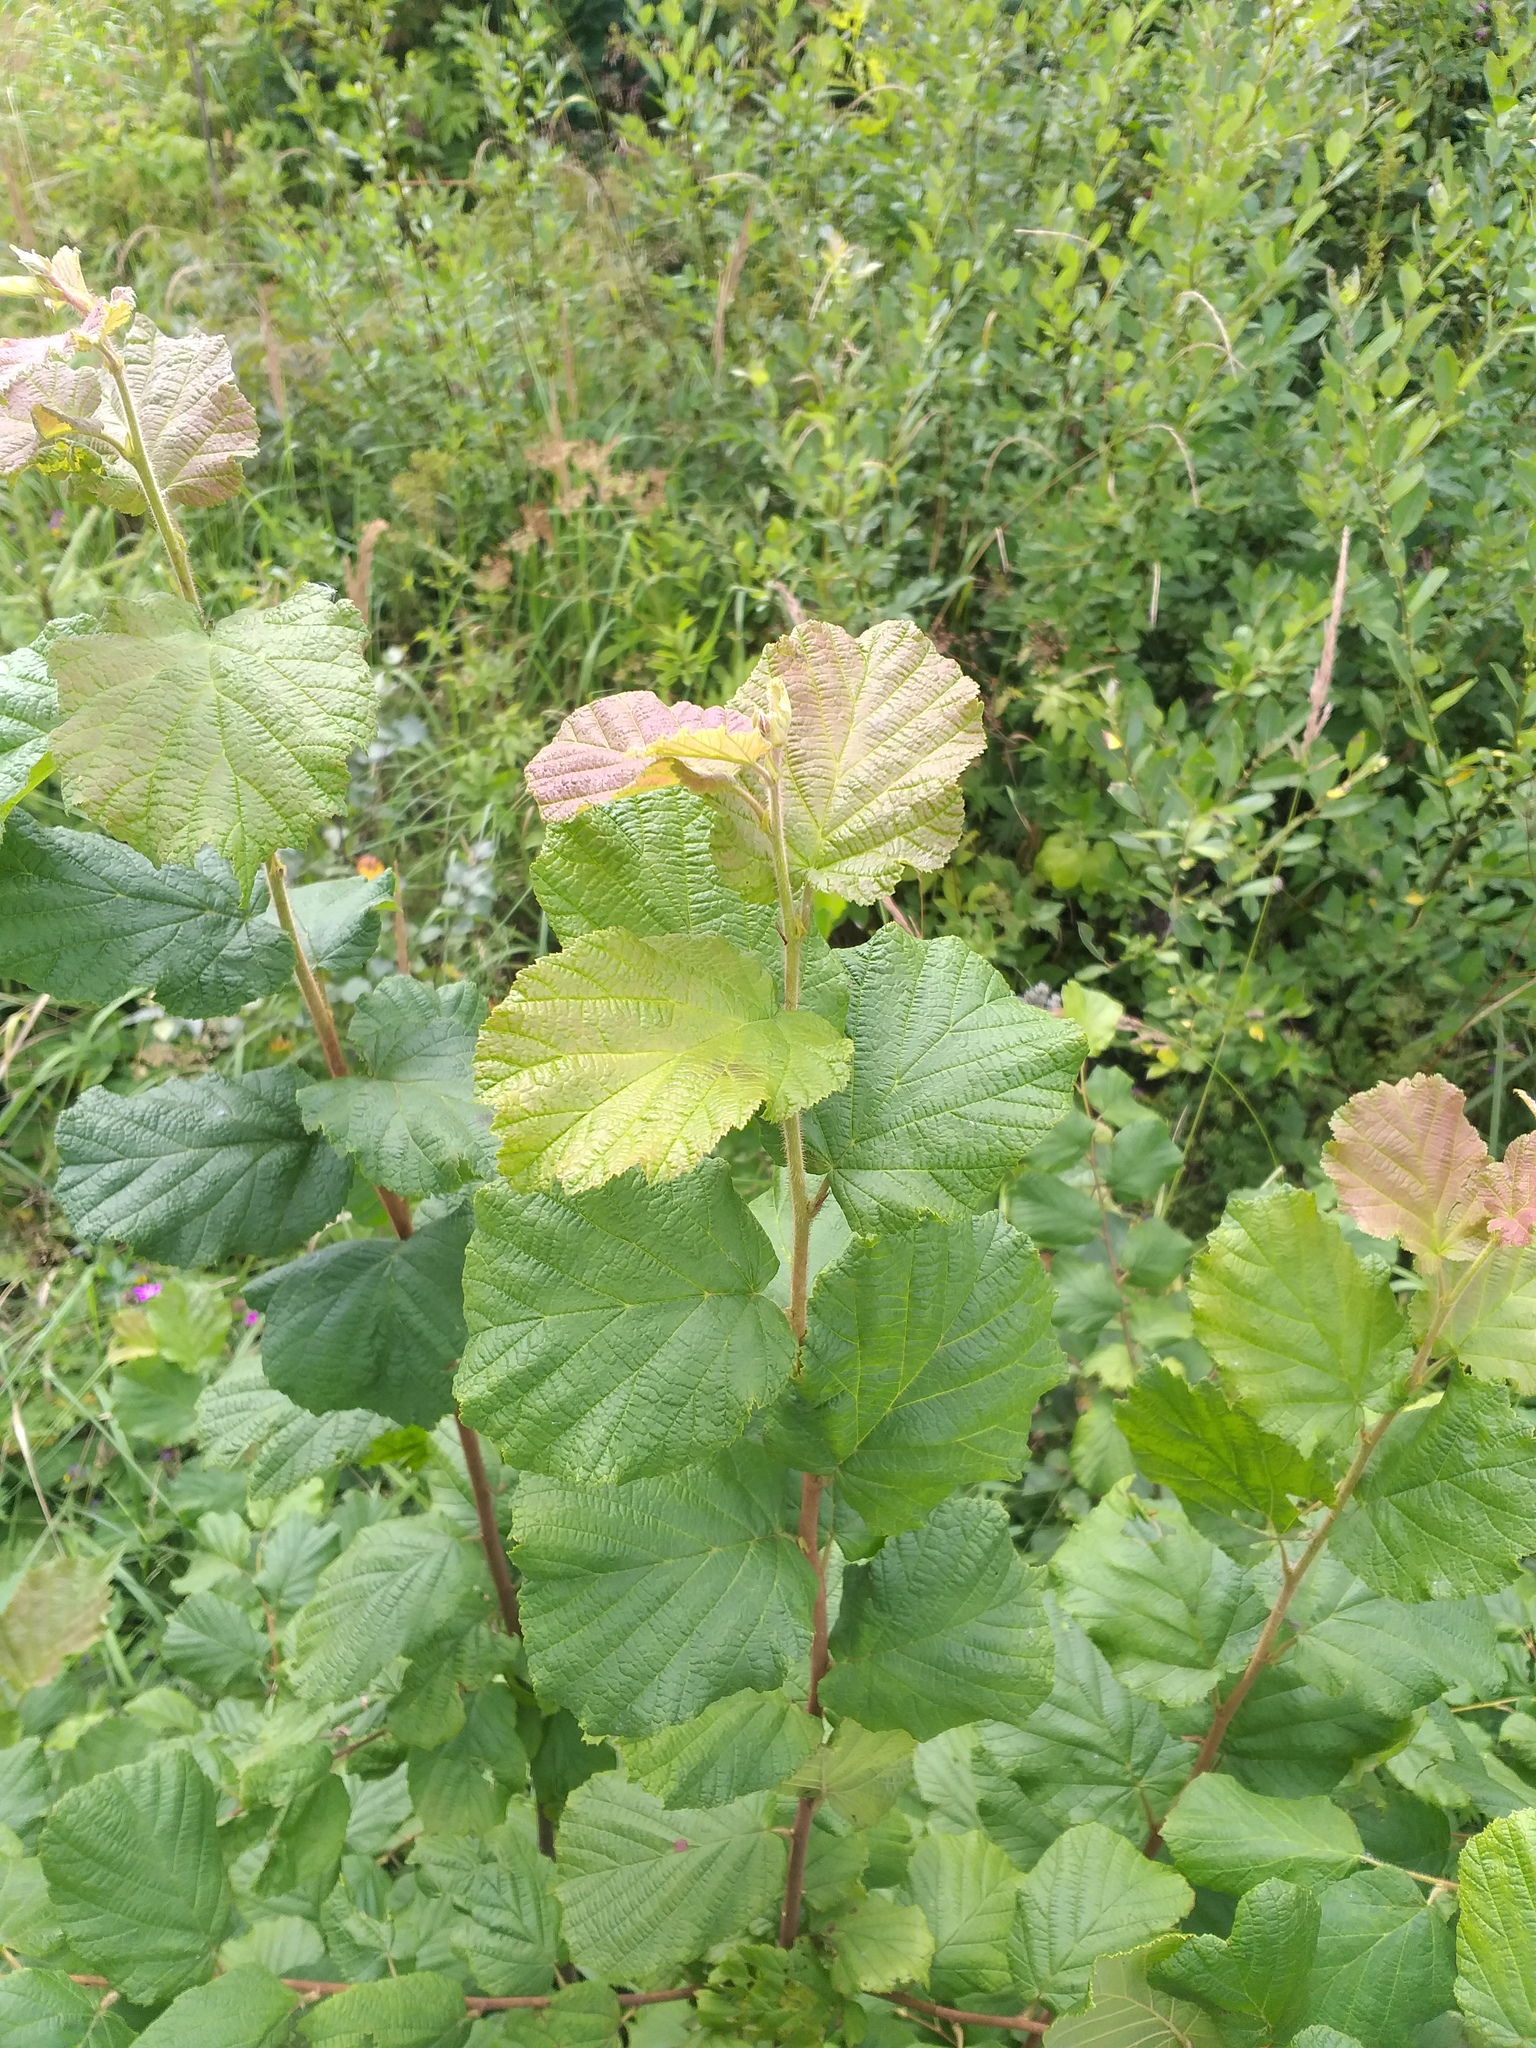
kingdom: Plantae
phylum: Tracheophyta
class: Magnoliopsida
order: Fagales
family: Betulaceae
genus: Corylus
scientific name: Corylus avellana
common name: European hazel
